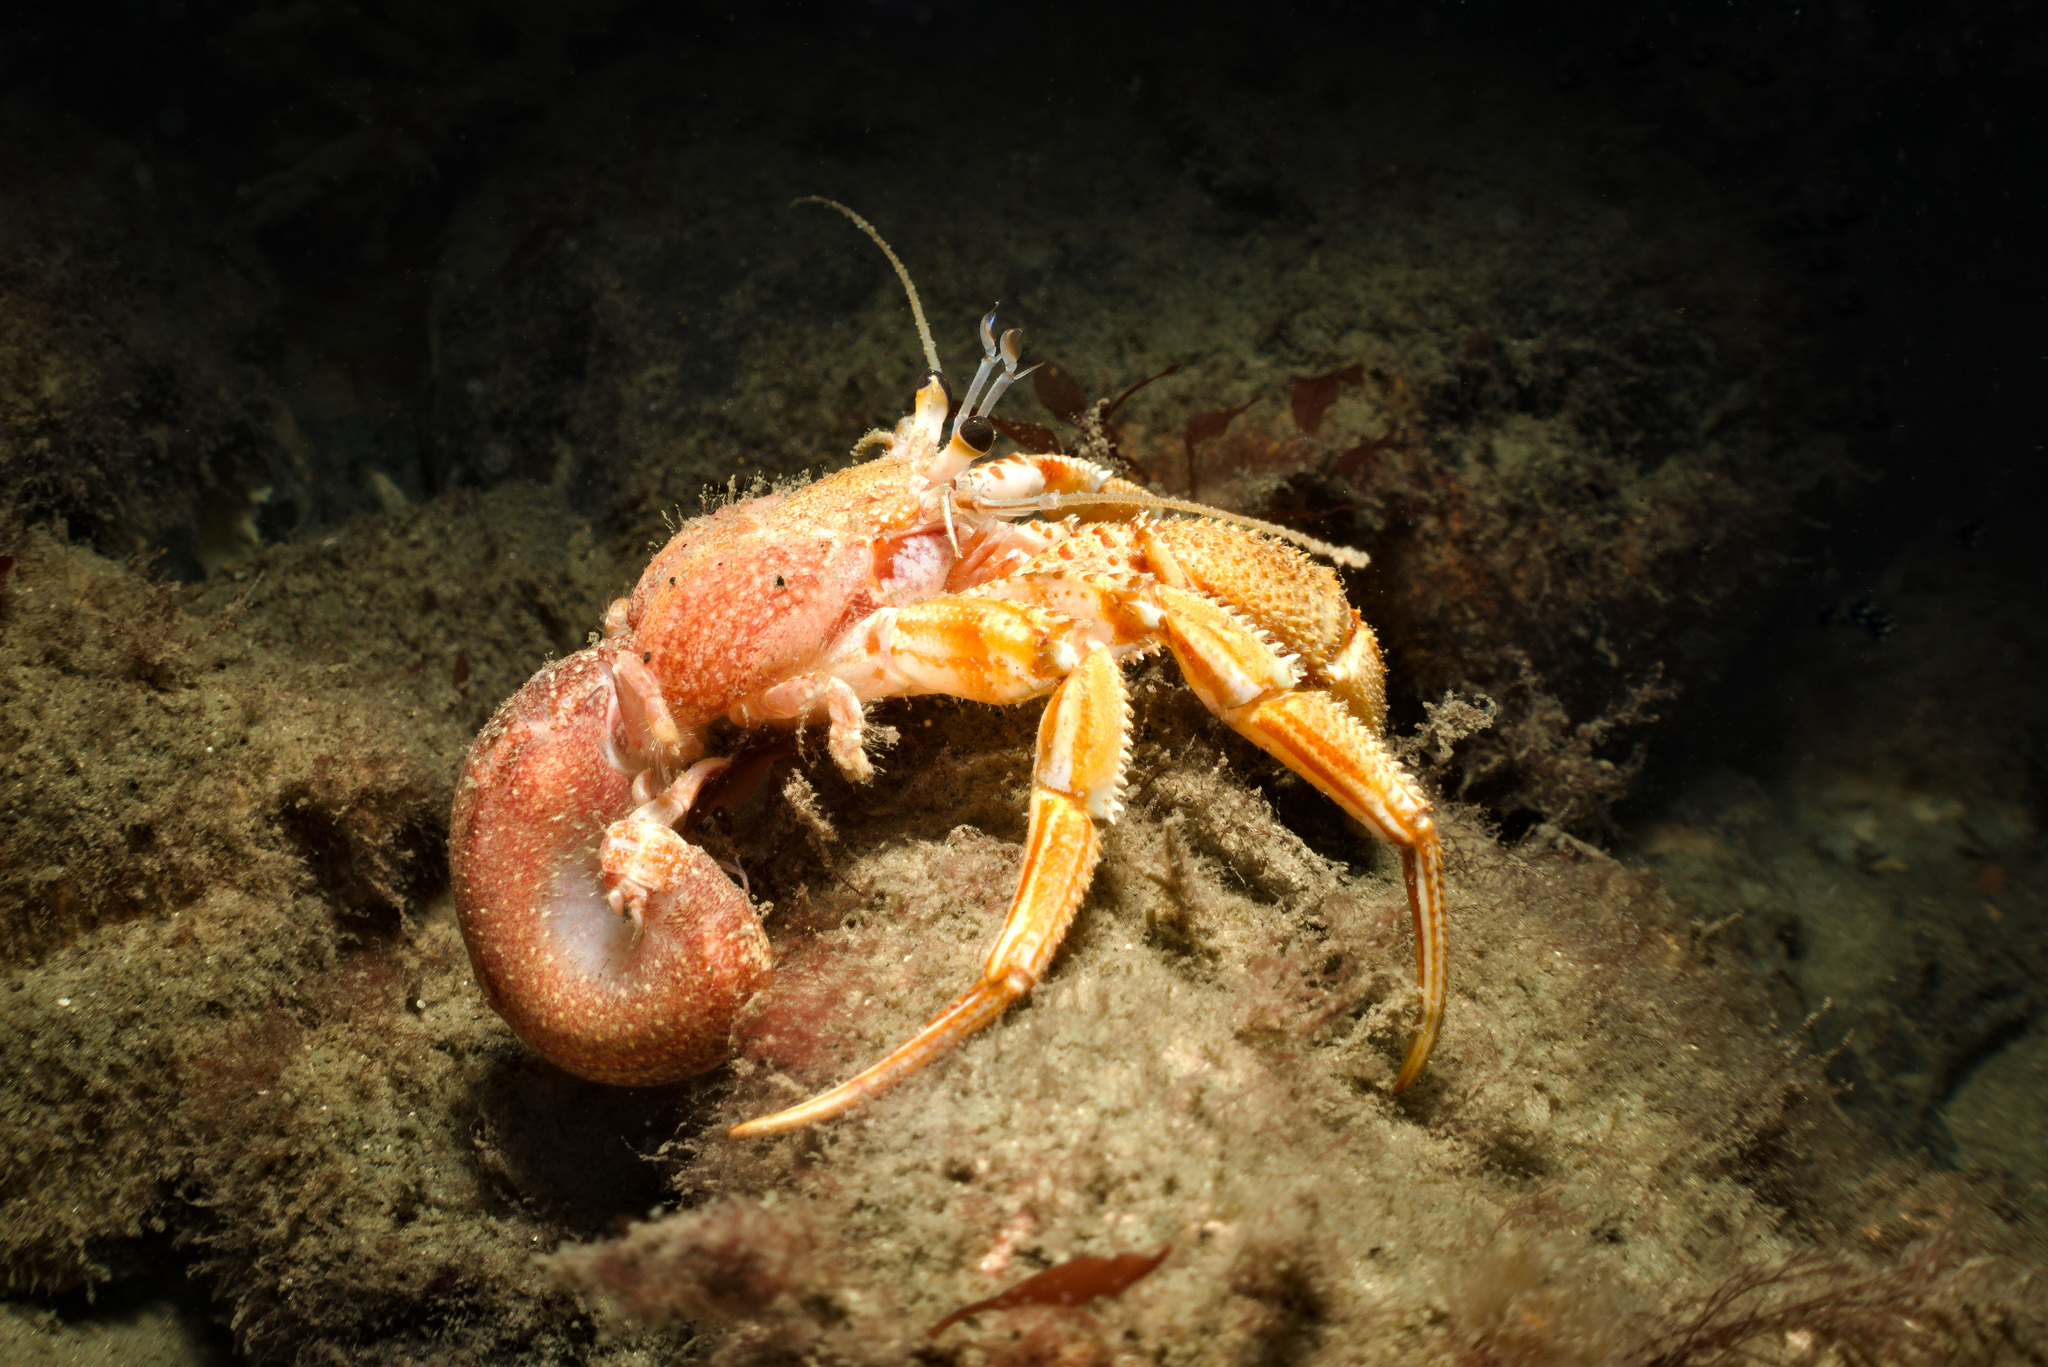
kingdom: Animalia
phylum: Arthropoda
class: Malacostraca
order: Decapoda
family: Paguridae
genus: Pagurus
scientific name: Pagurus bernhardus
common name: Hermit crab
